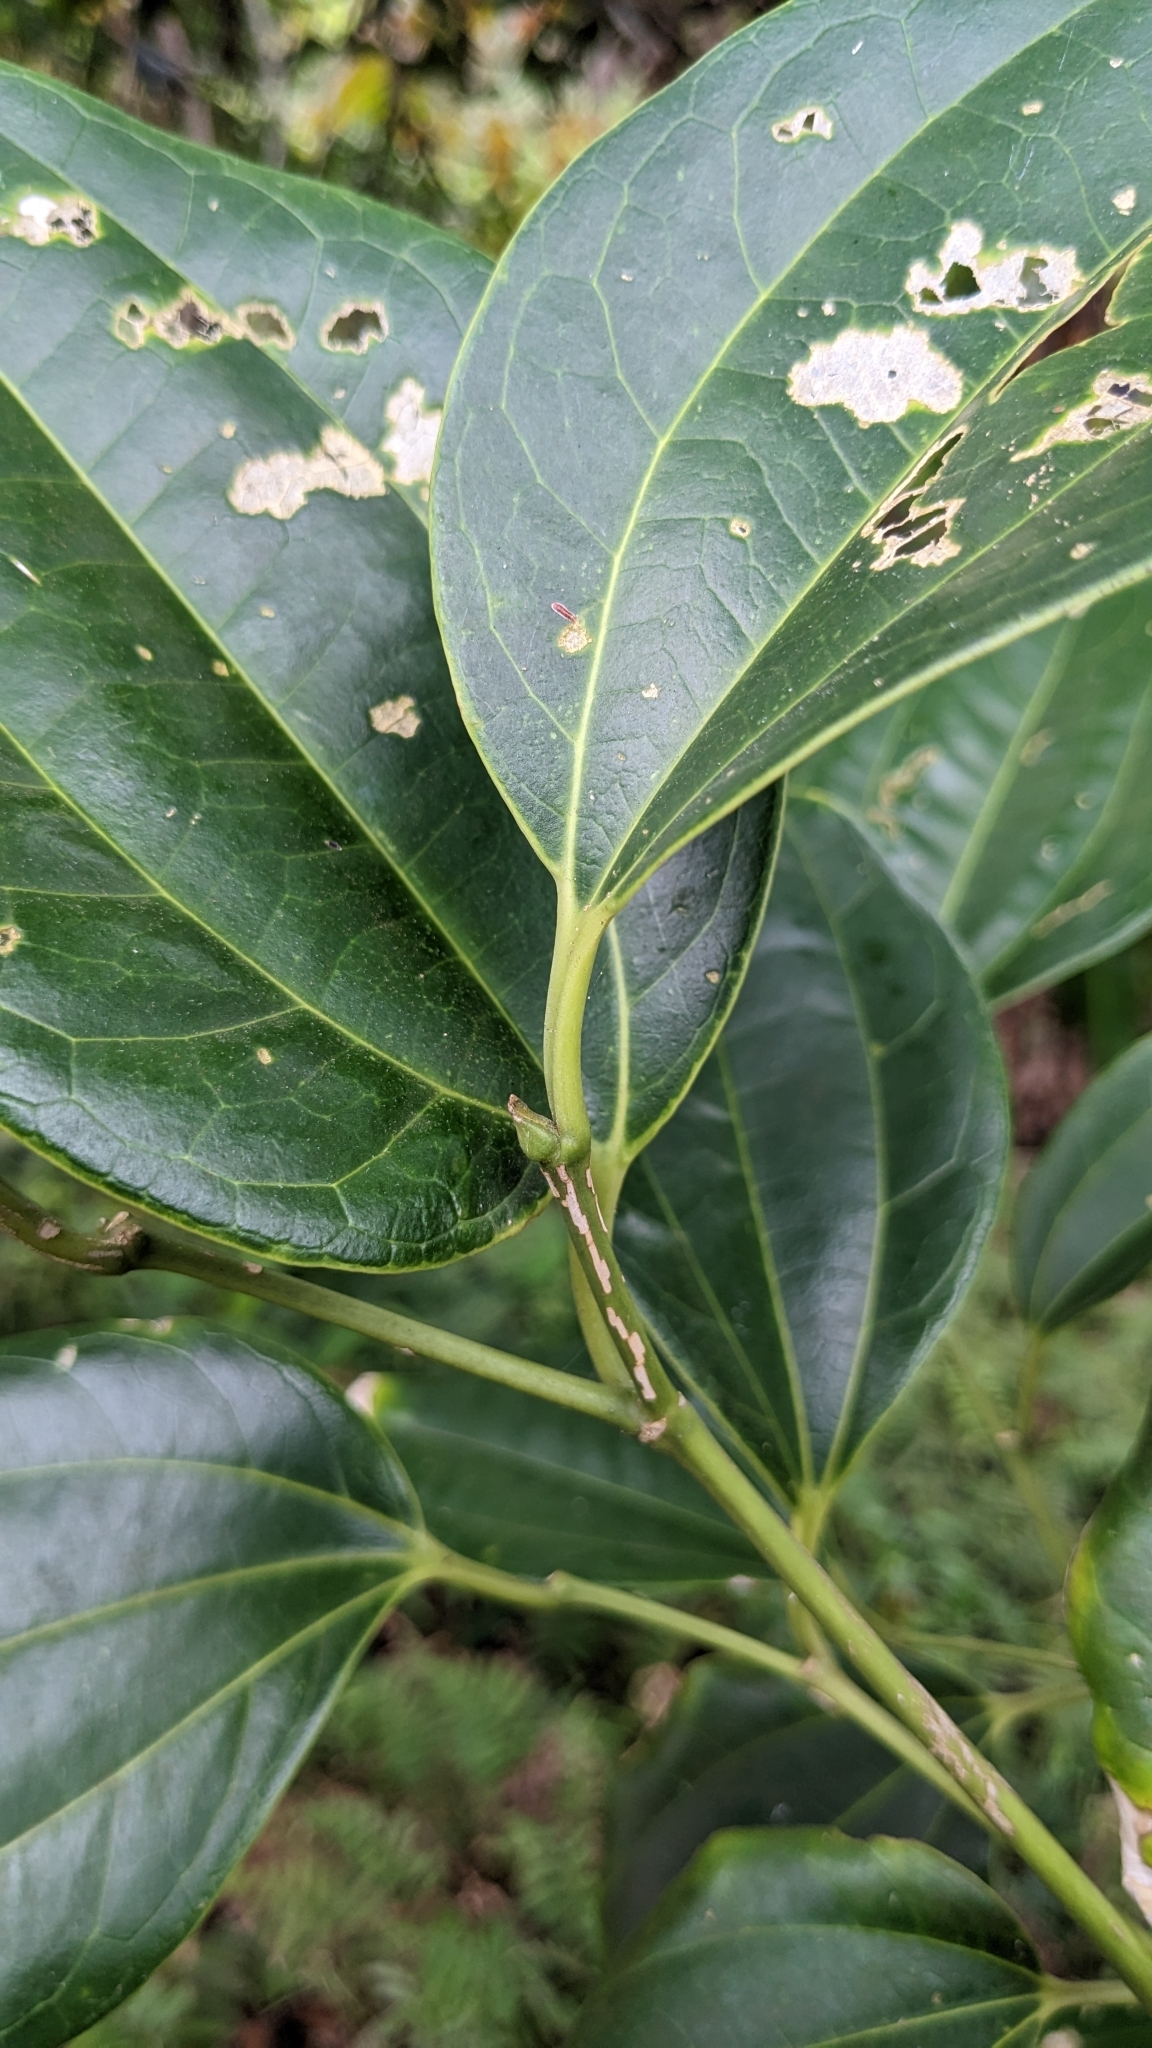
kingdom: Plantae
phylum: Tracheophyta
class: Magnoliopsida
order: Rosales
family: Cannabaceae
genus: Celtis
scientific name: Celtis philippensis
